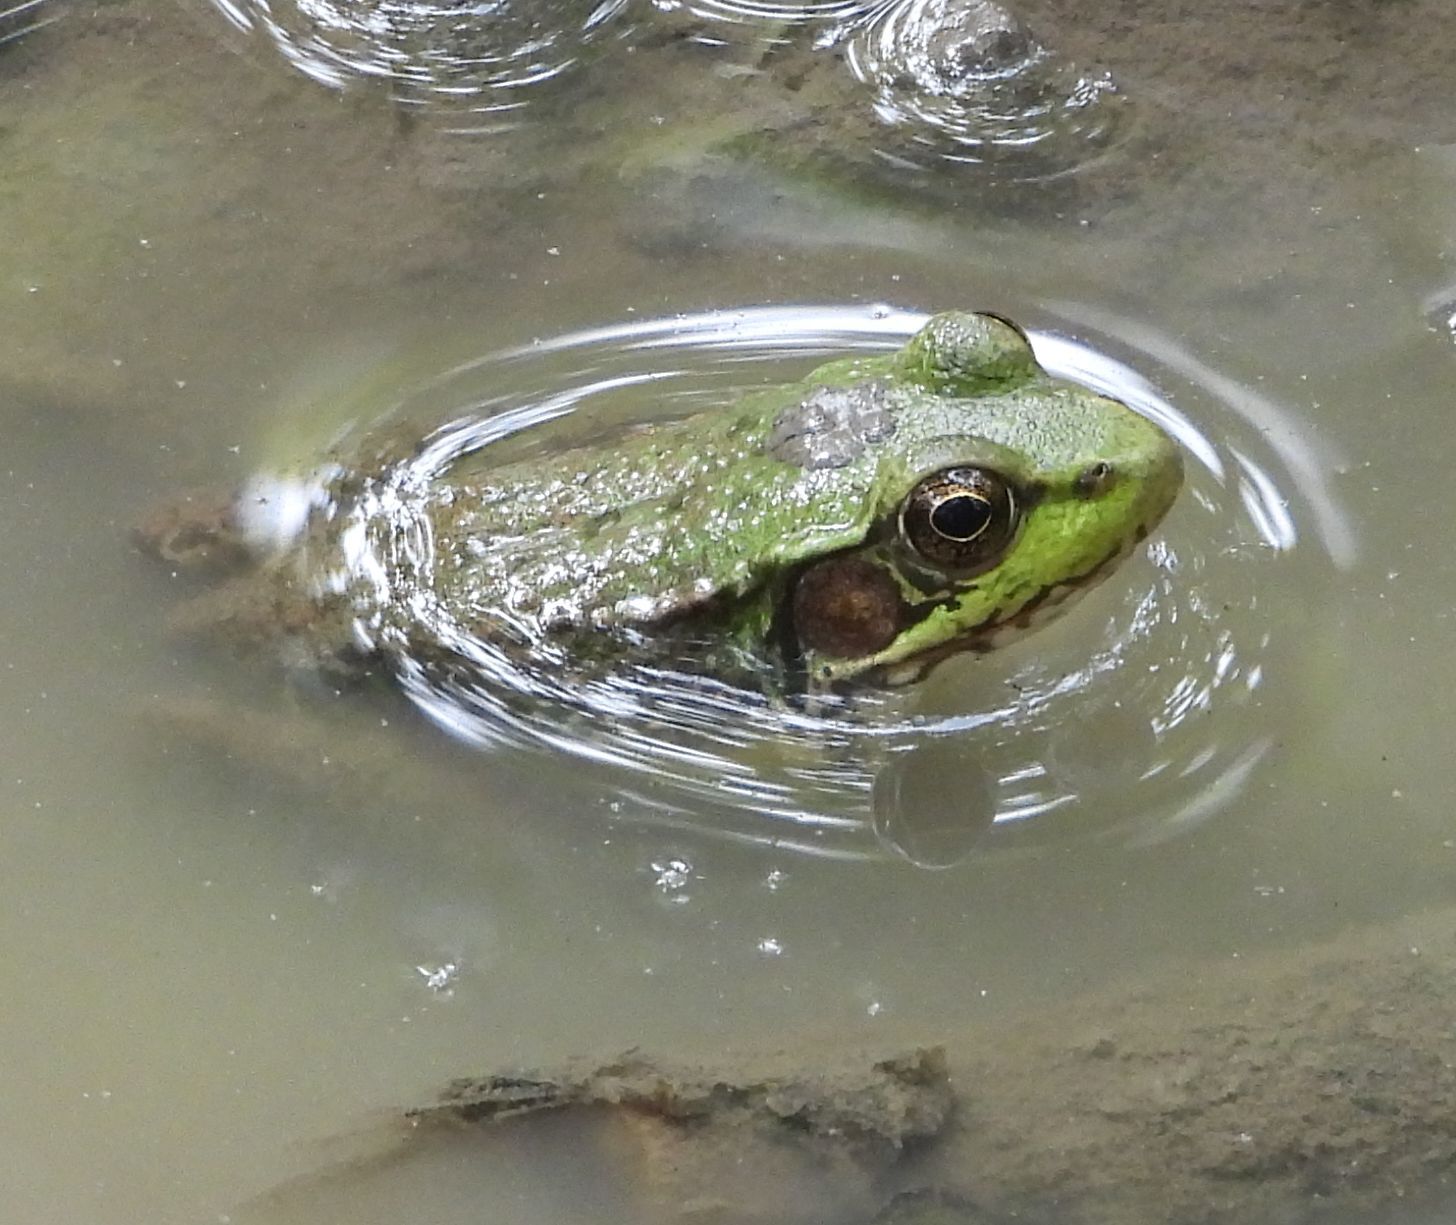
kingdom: Animalia
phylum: Chordata
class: Amphibia
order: Anura
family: Ranidae
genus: Lithobates
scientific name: Lithobates clamitans
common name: Green frog
